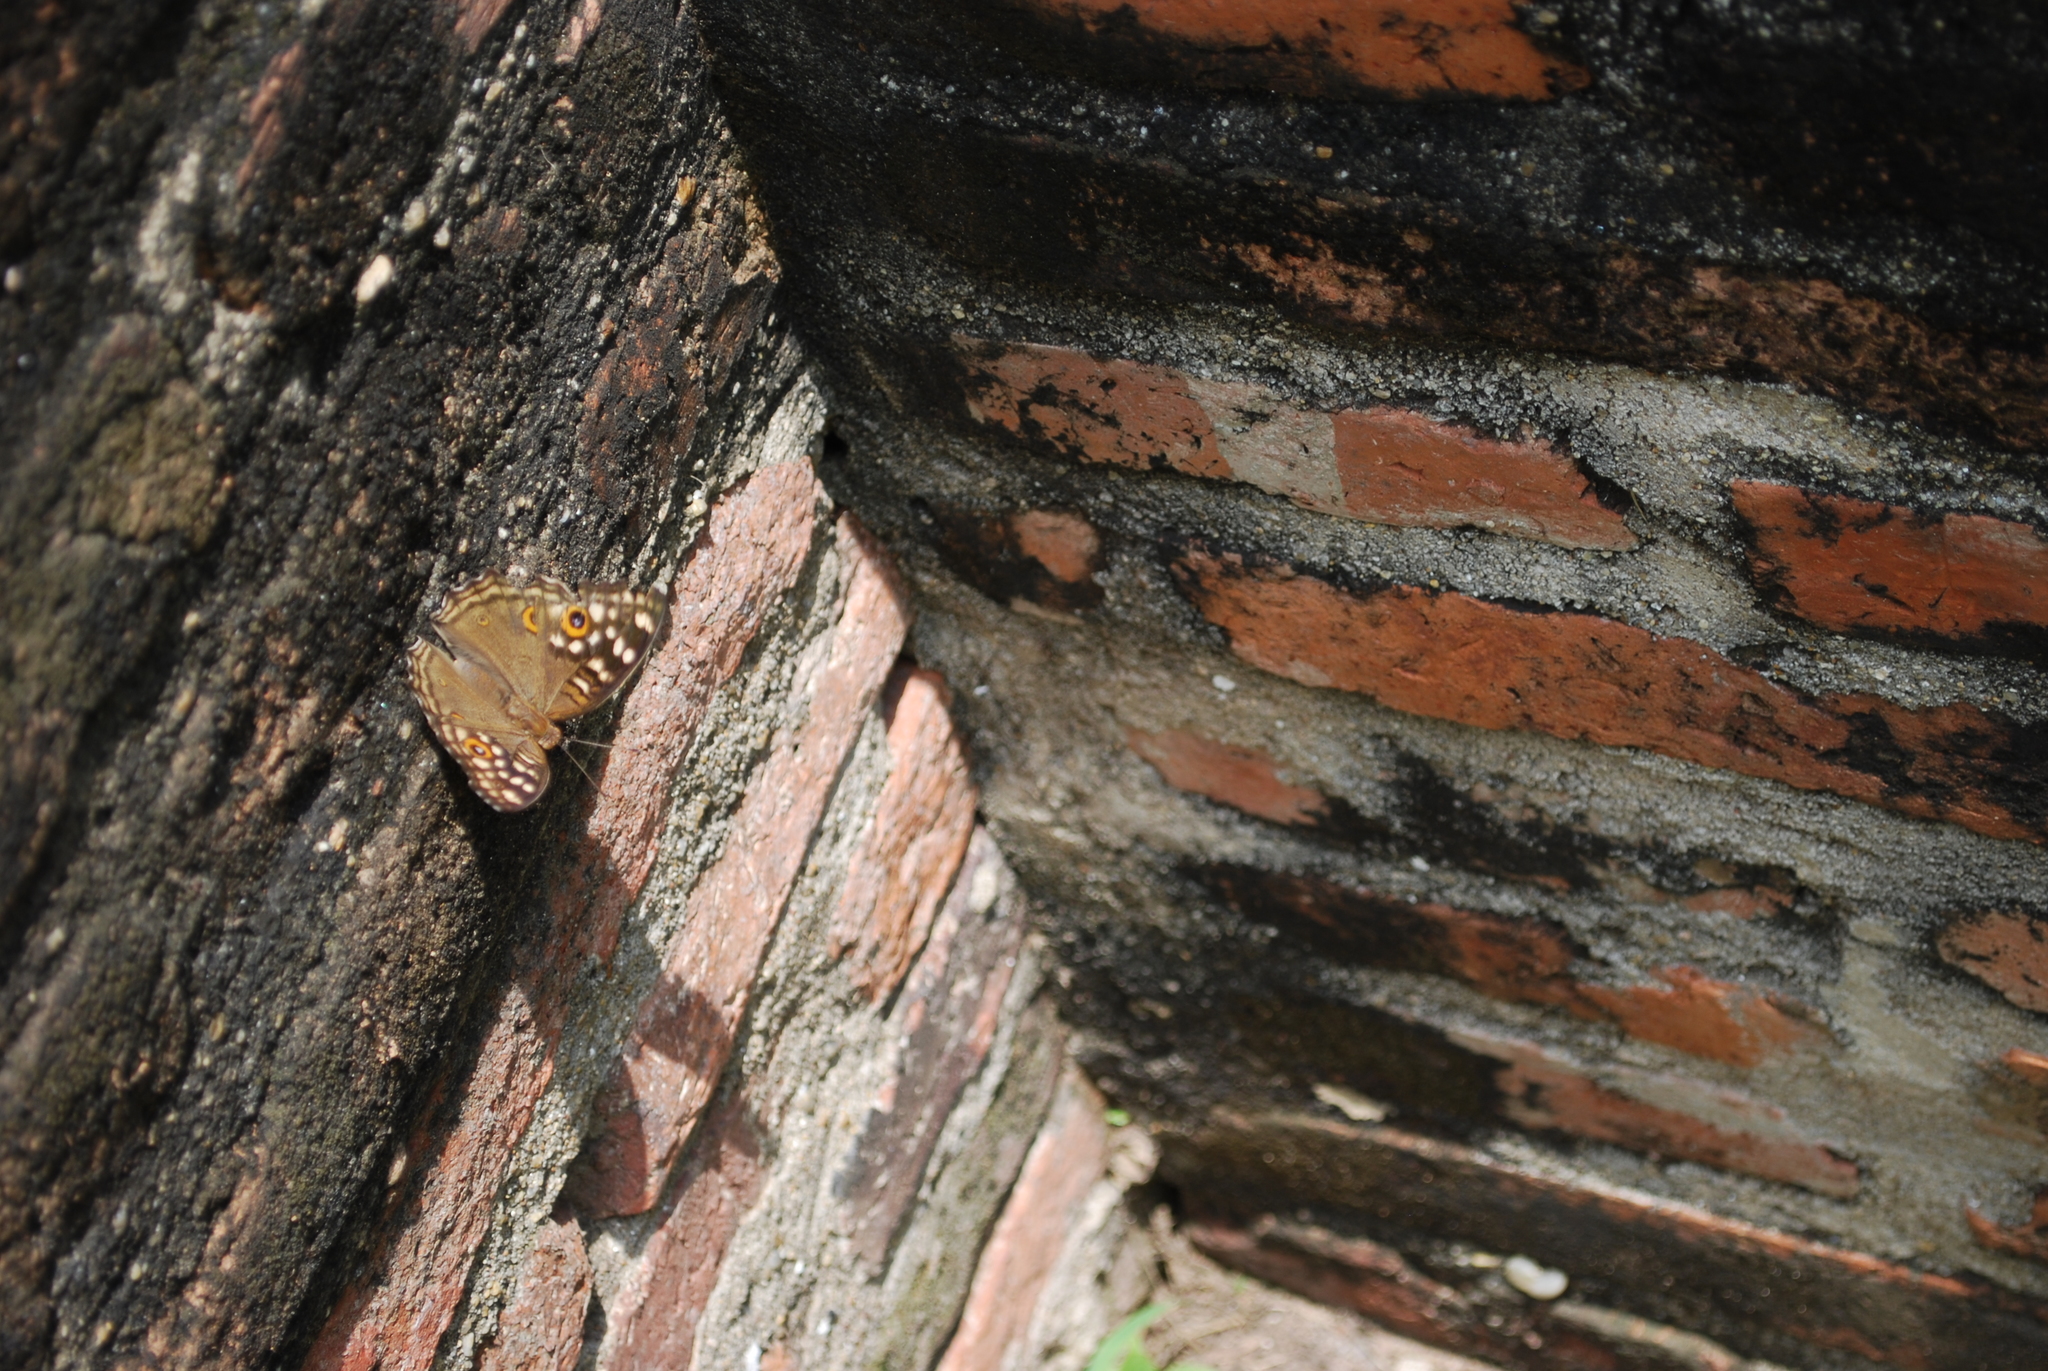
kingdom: Animalia
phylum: Arthropoda
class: Insecta
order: Lepidoptera
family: Nymphalidae
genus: Junonia
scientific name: Junonia lemonias
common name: Lemon pansy
